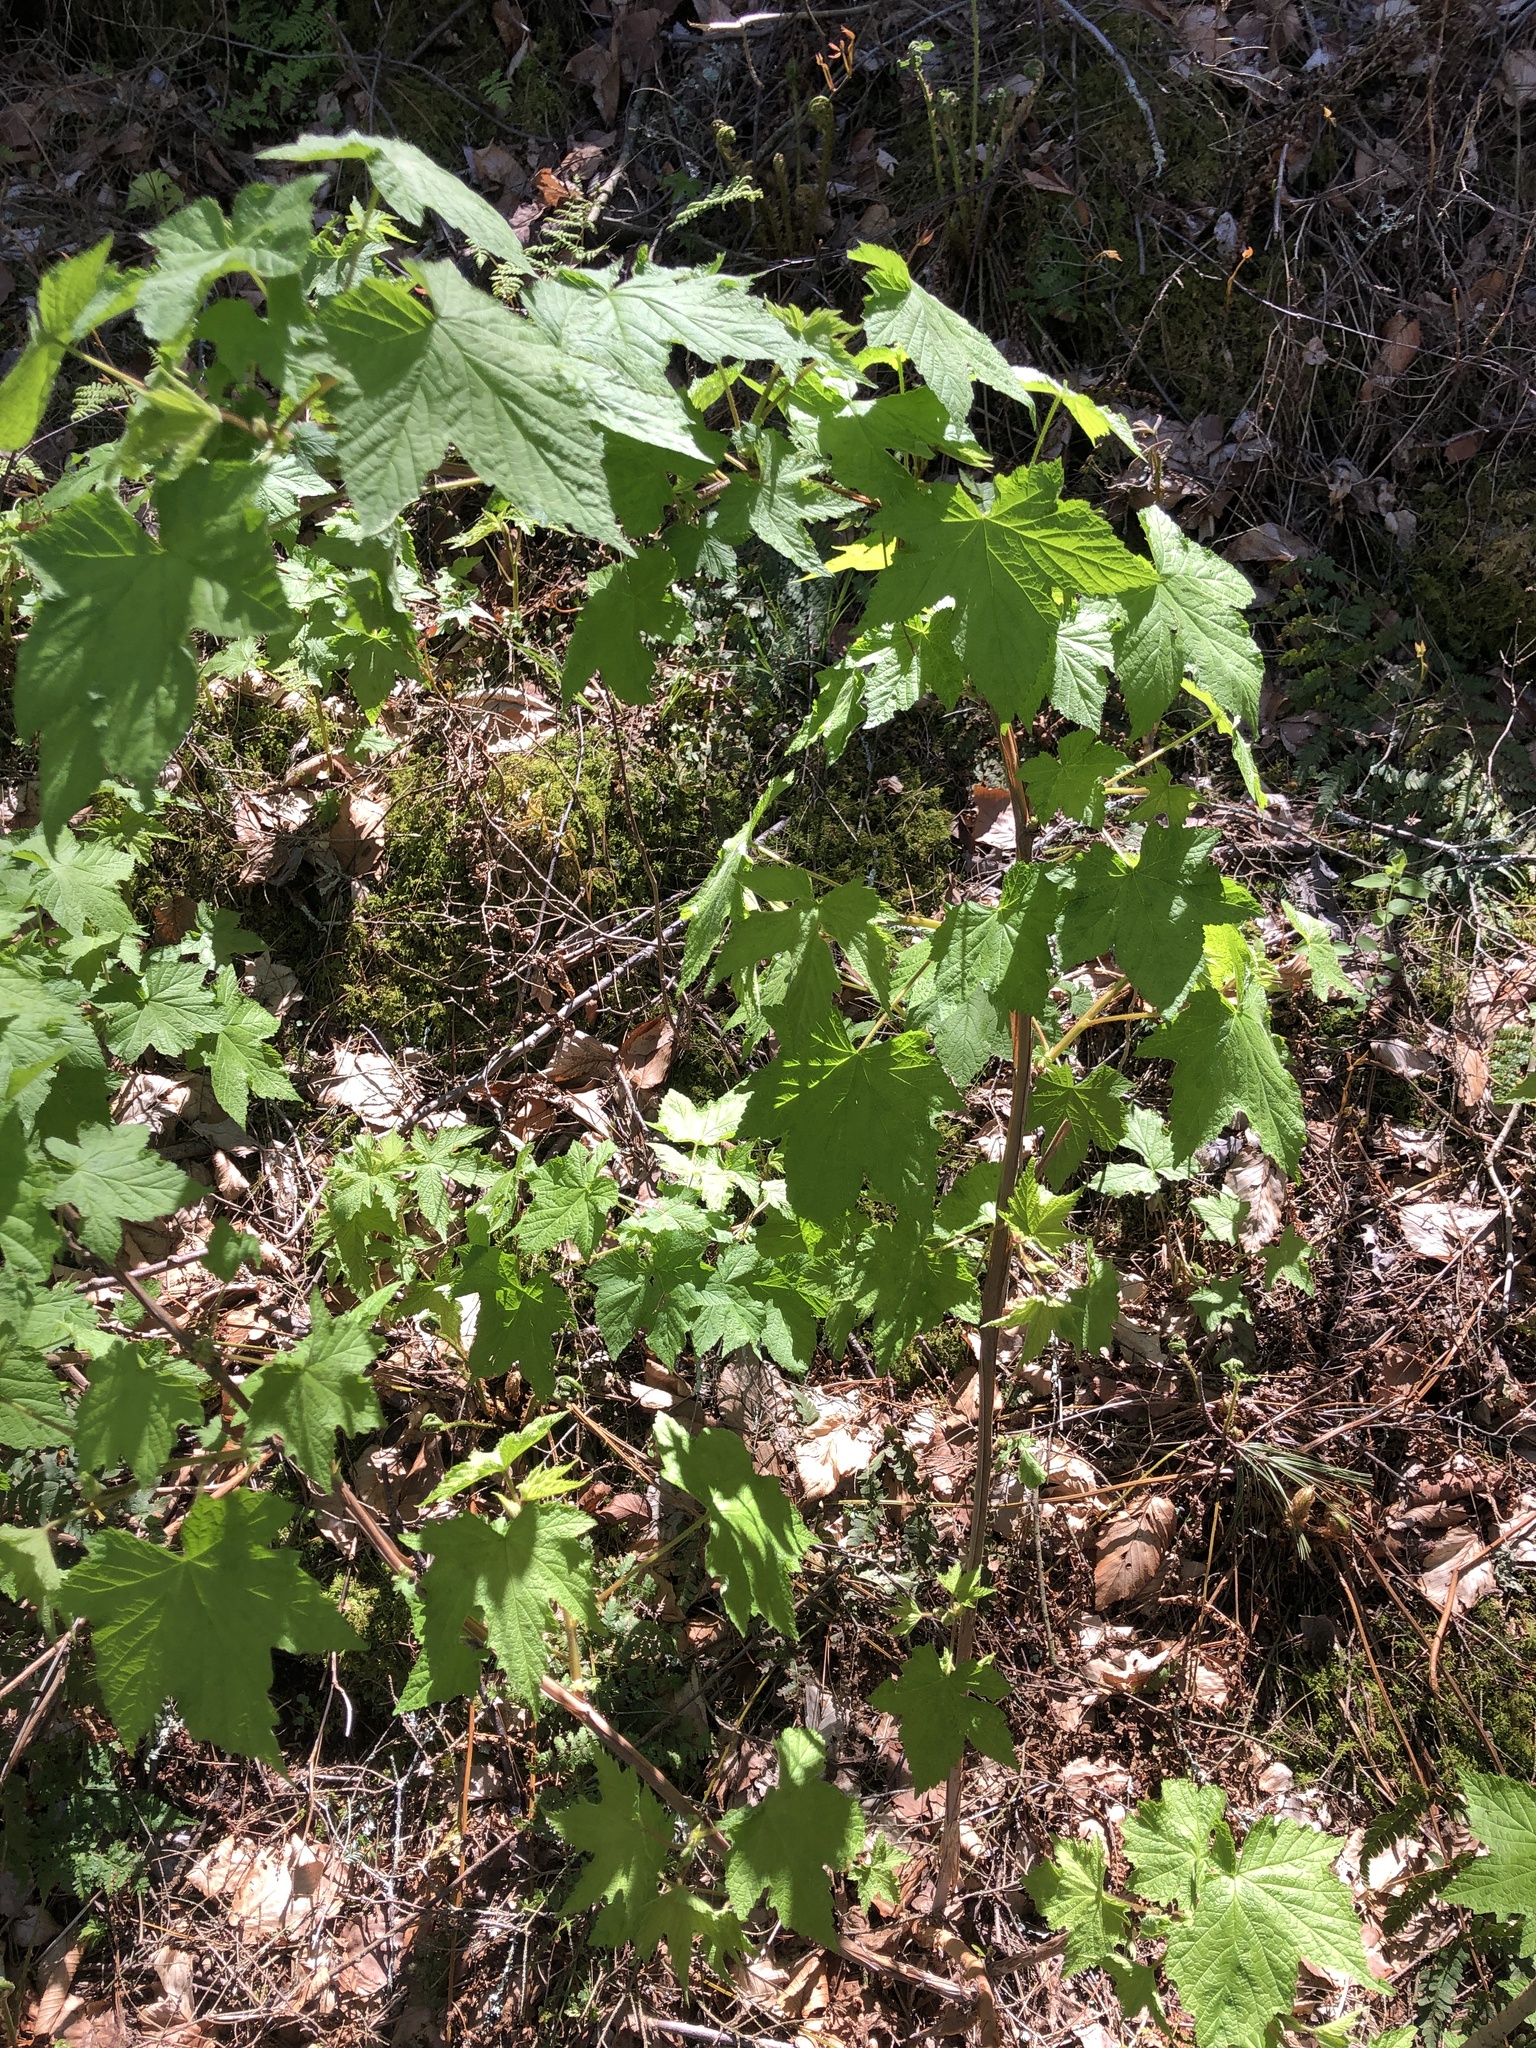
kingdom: Plantae
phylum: Tracheophyta
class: Magnoliopsida
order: Rosales
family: Rosaceae
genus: Rubus
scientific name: Rubus odoratus
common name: Purple-flowered raspberry
